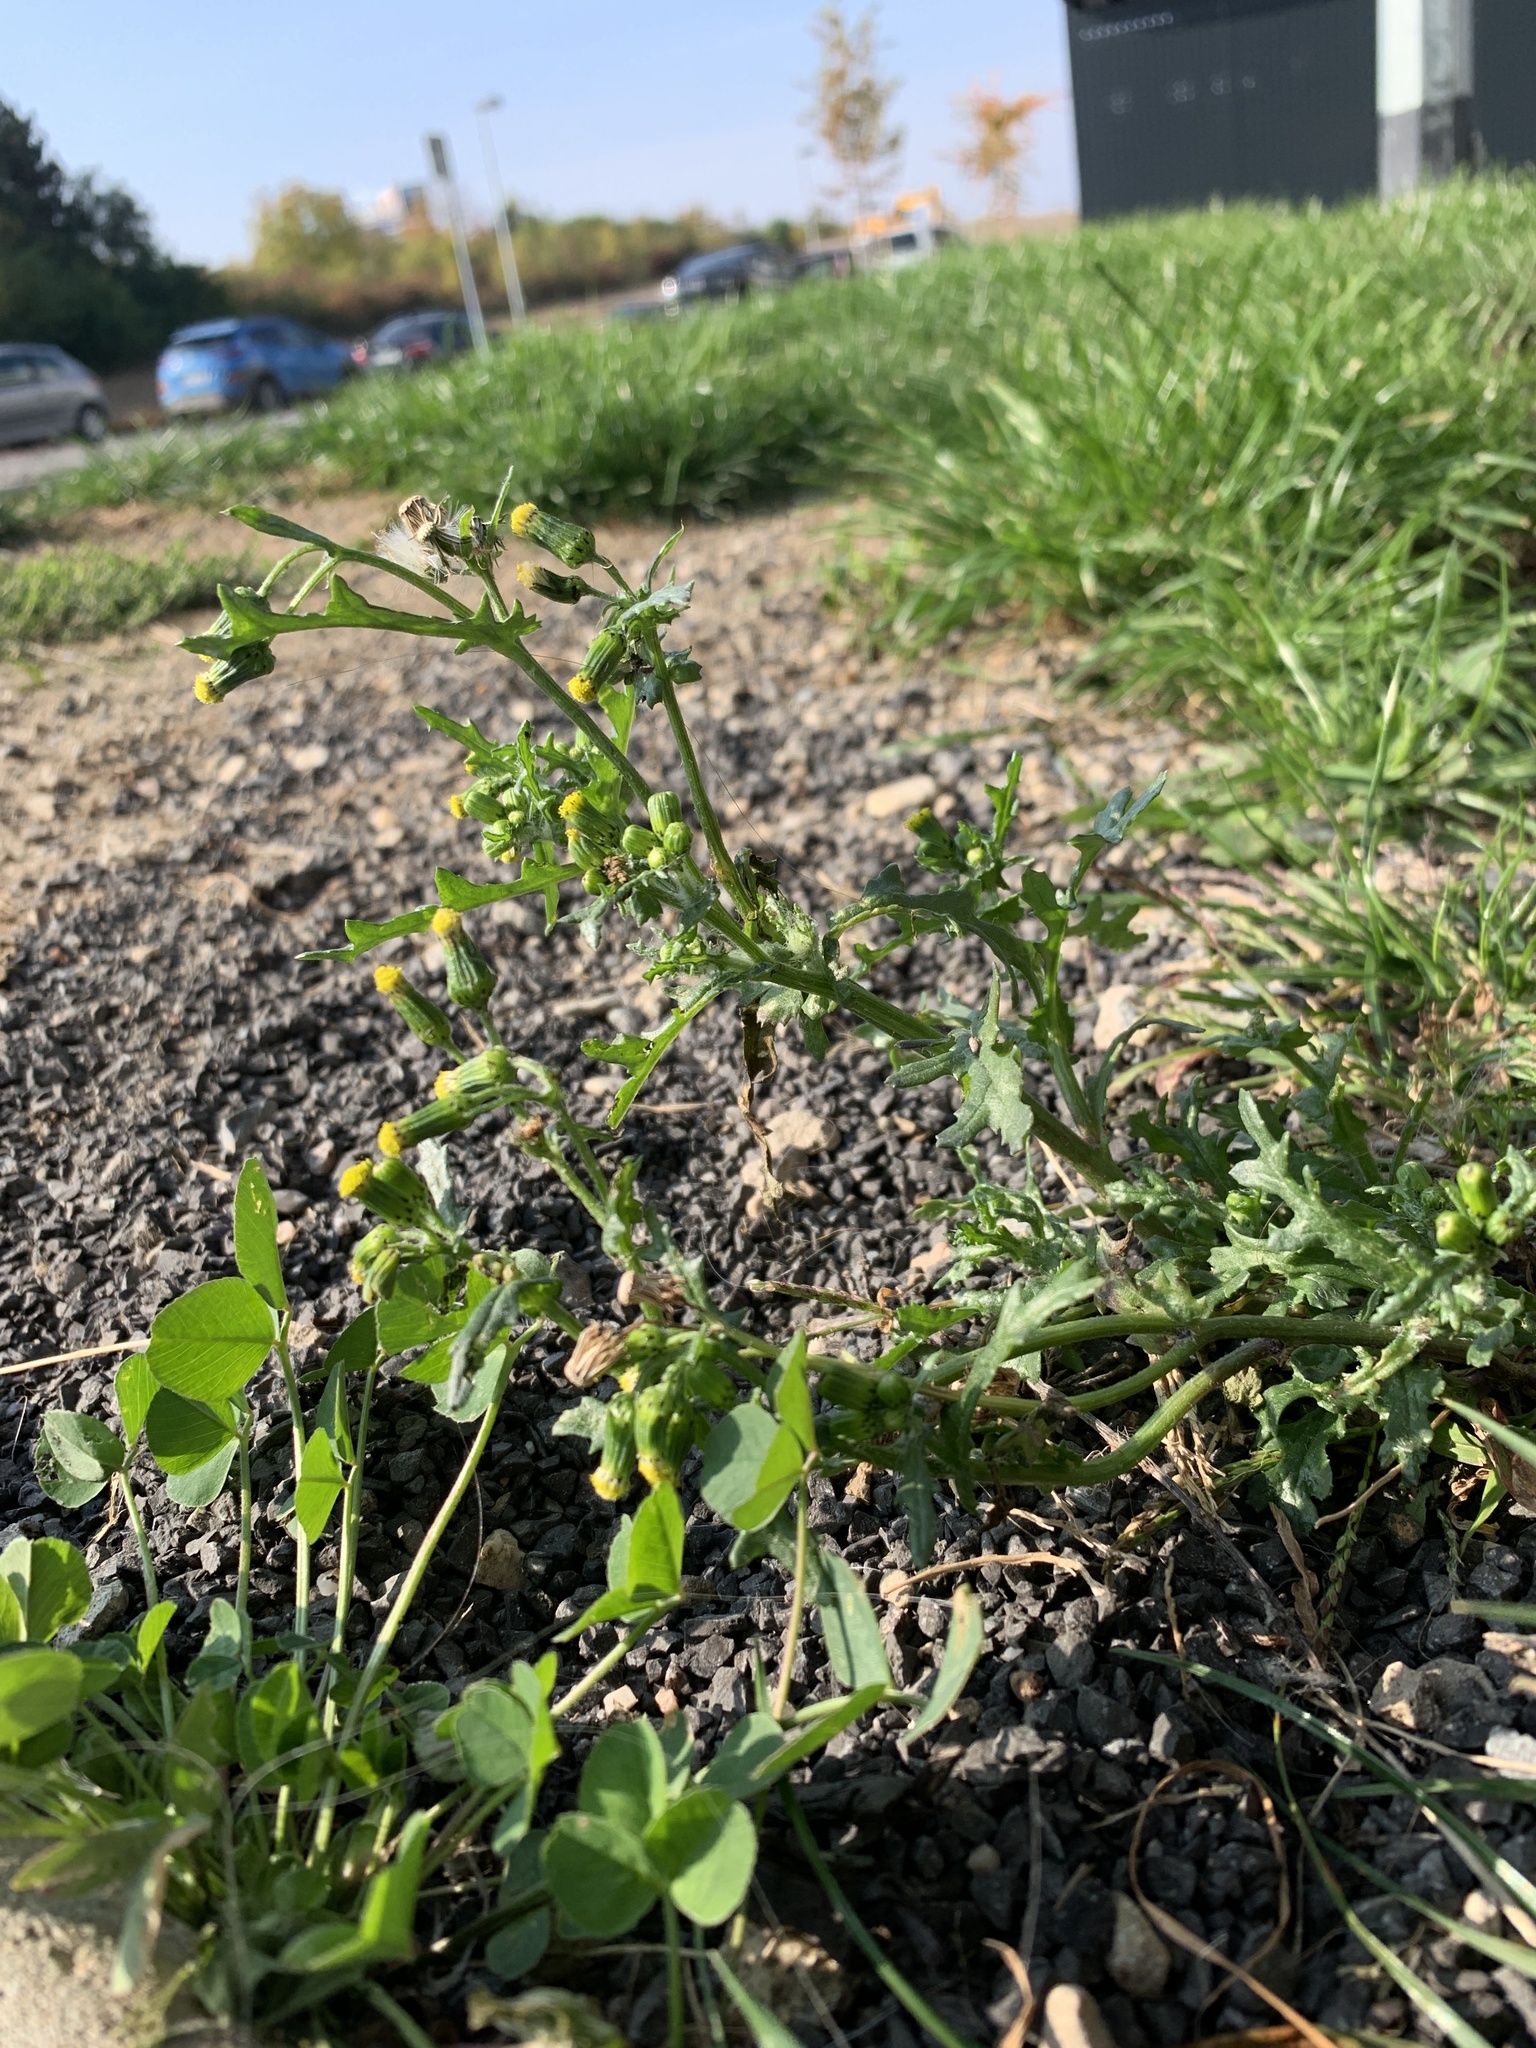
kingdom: Plantae
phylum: Tracheophyta
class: Magnoliopsida
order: Asterales
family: Asteraceae
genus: Senecio
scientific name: Senecio vulgaris
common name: Old-man-in-the-spring
